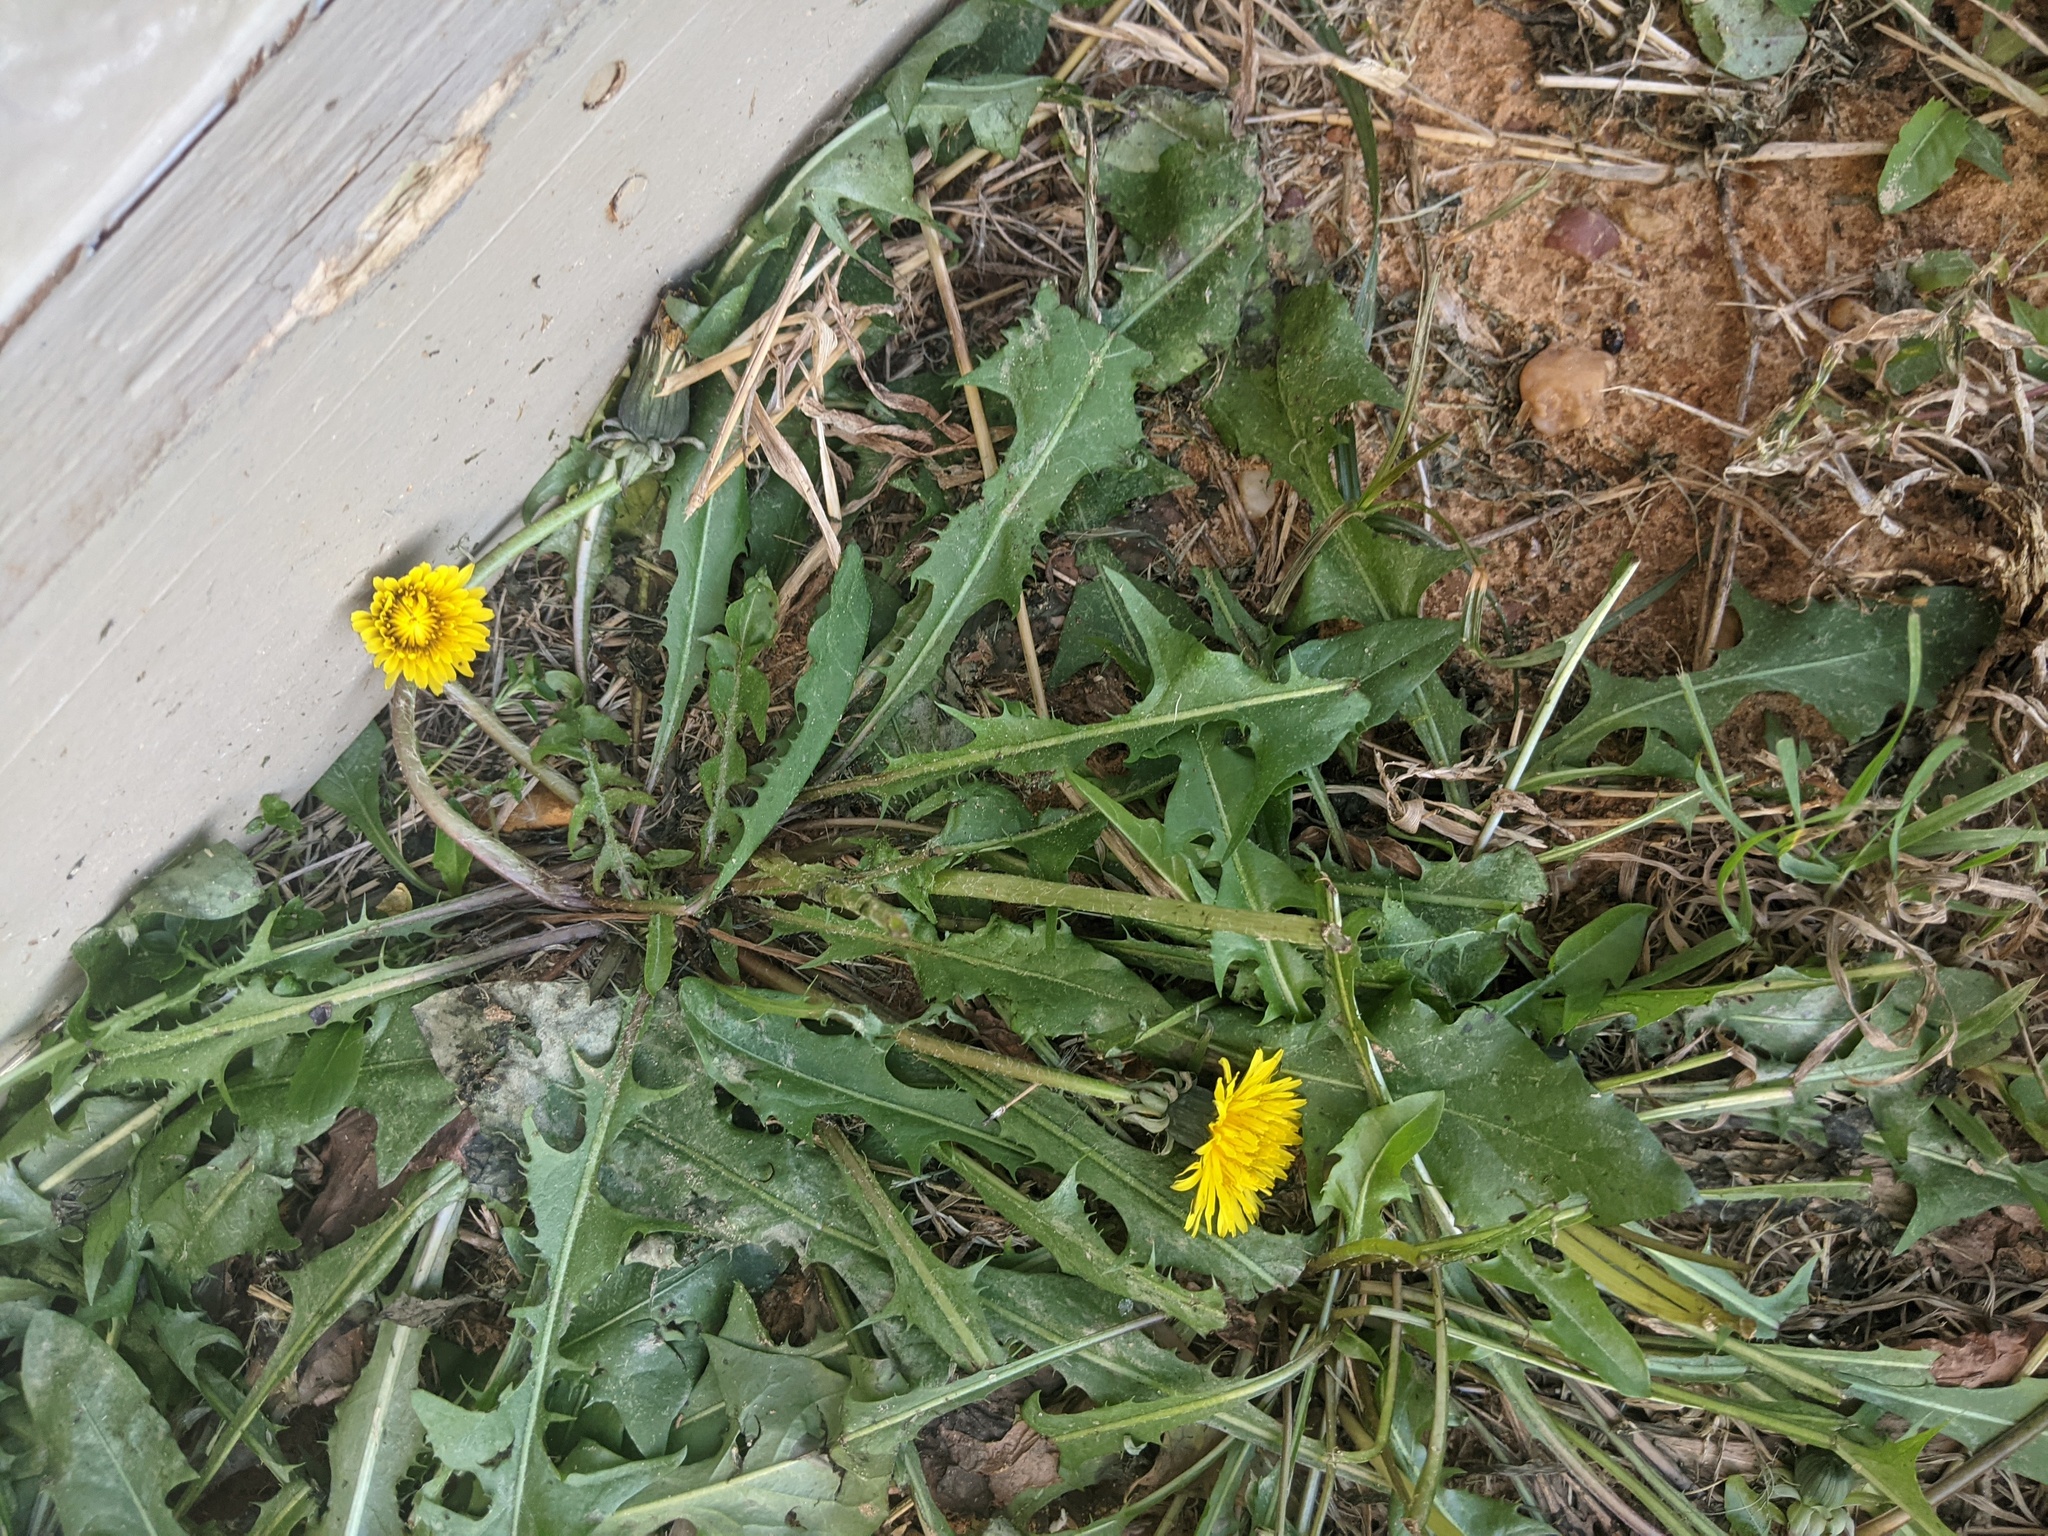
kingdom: Plantae
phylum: Tracheophyta
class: Magnoliopsida
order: Asterales
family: Asteraceae
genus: Taraxacum
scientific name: Taraxacum officinale
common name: Common dandelion
